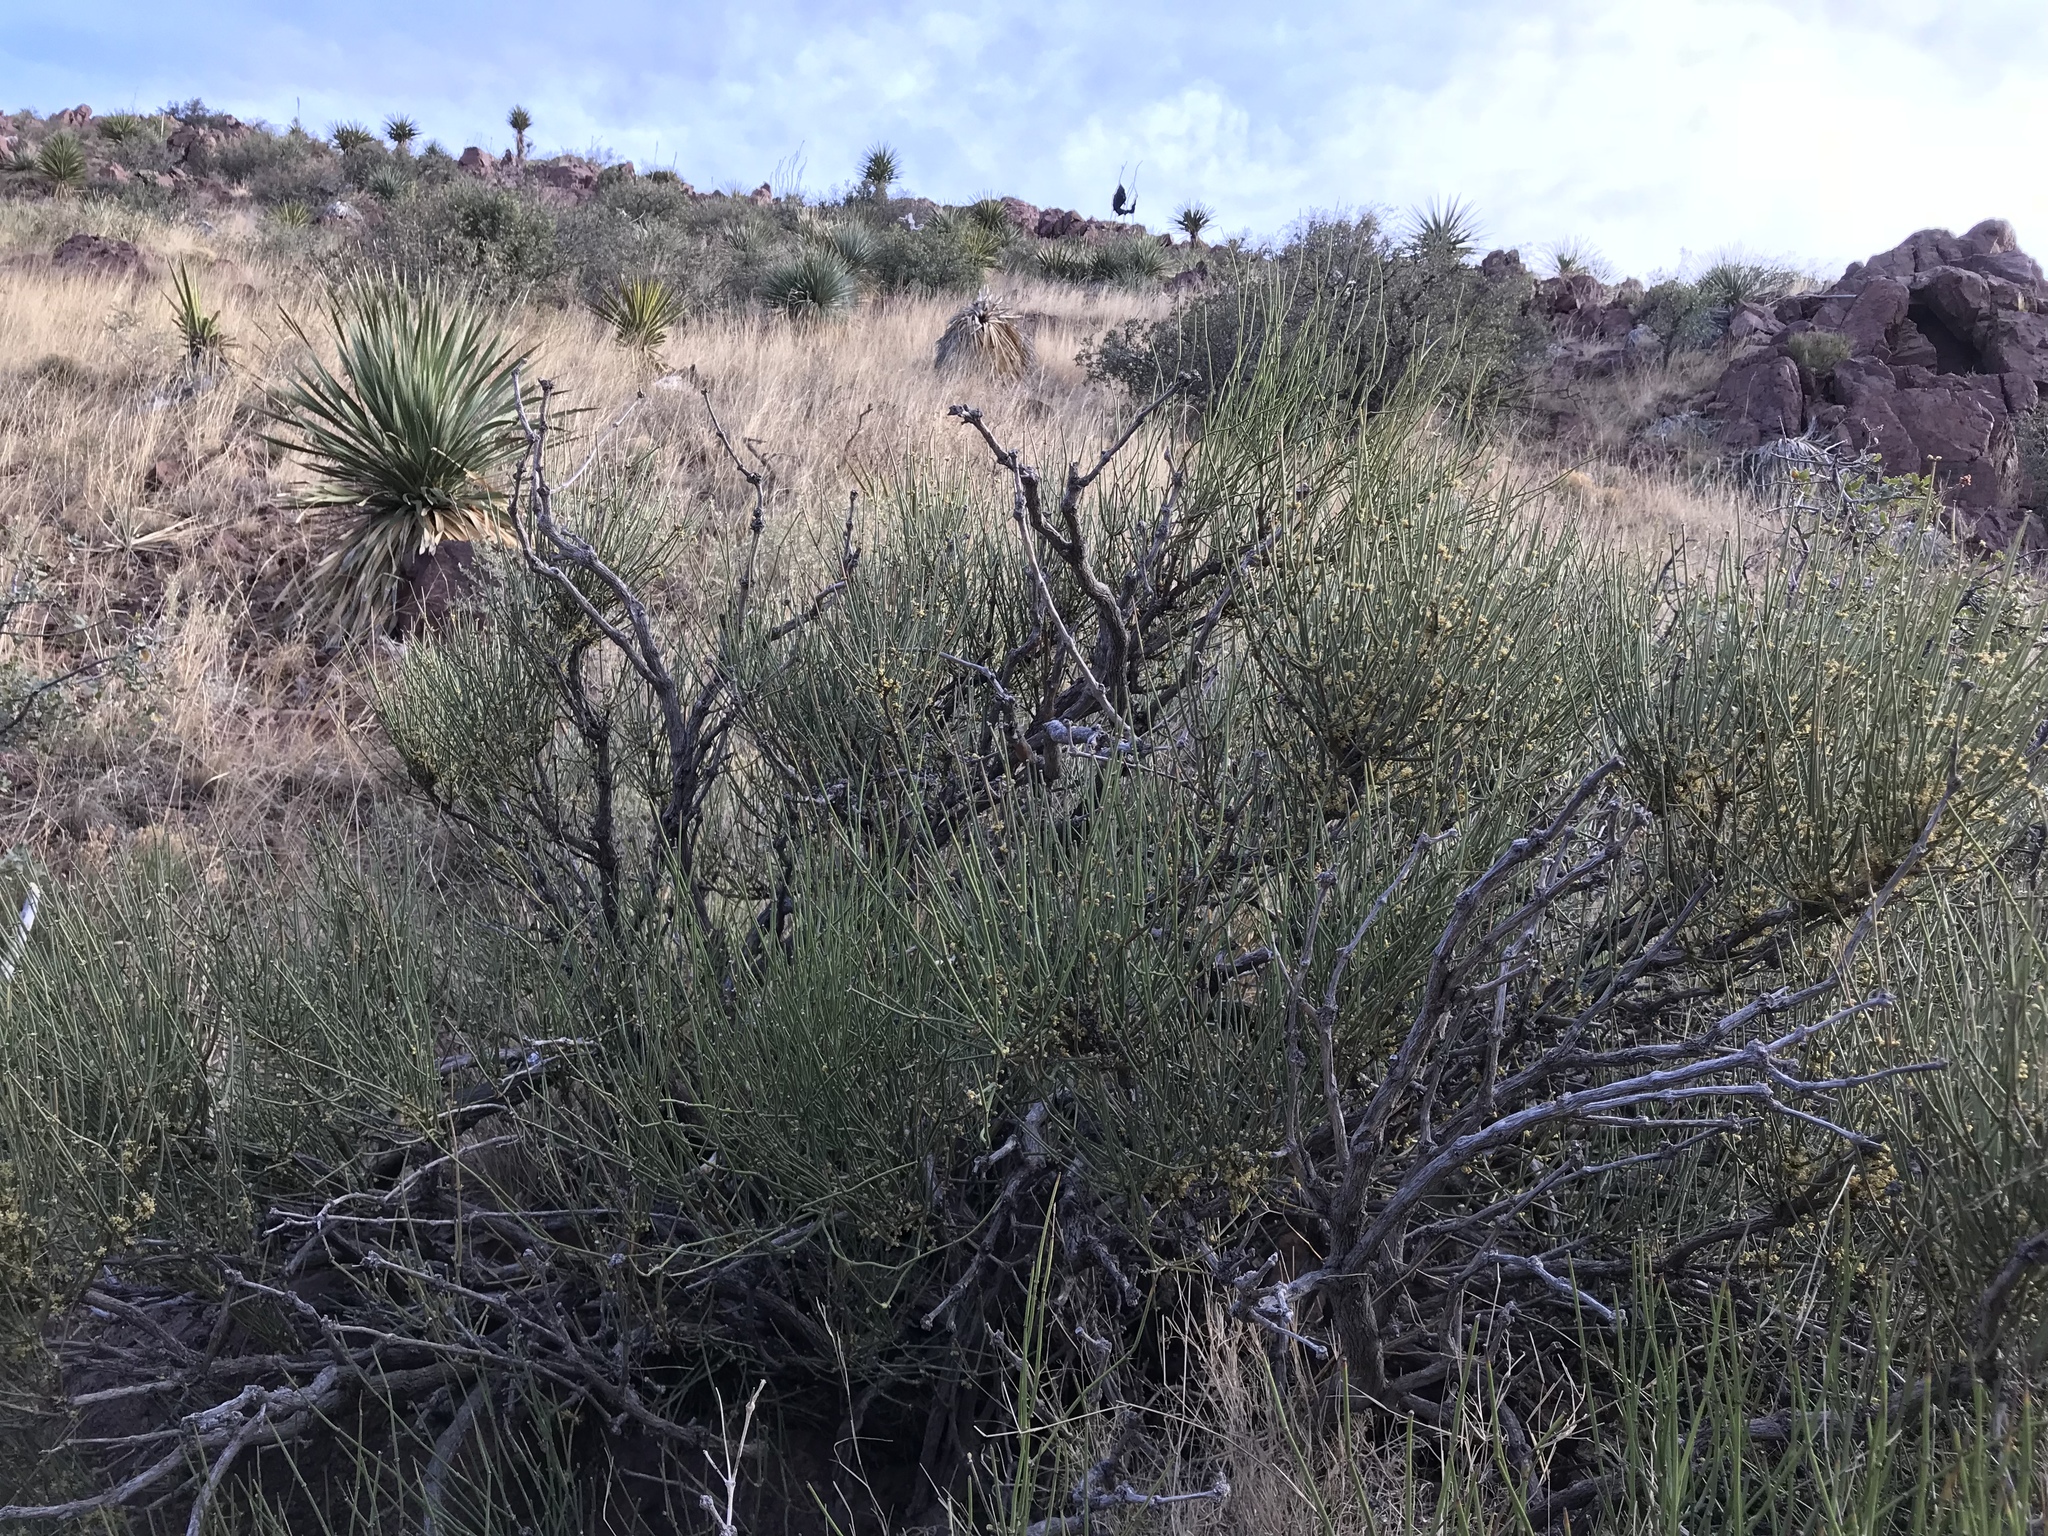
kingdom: Plantae
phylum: Tracheophyta
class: Gnetopsida
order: Ephedrales
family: Ephedraceae
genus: Ephedra
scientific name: Ephedra trifurca
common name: Mexican-tea
